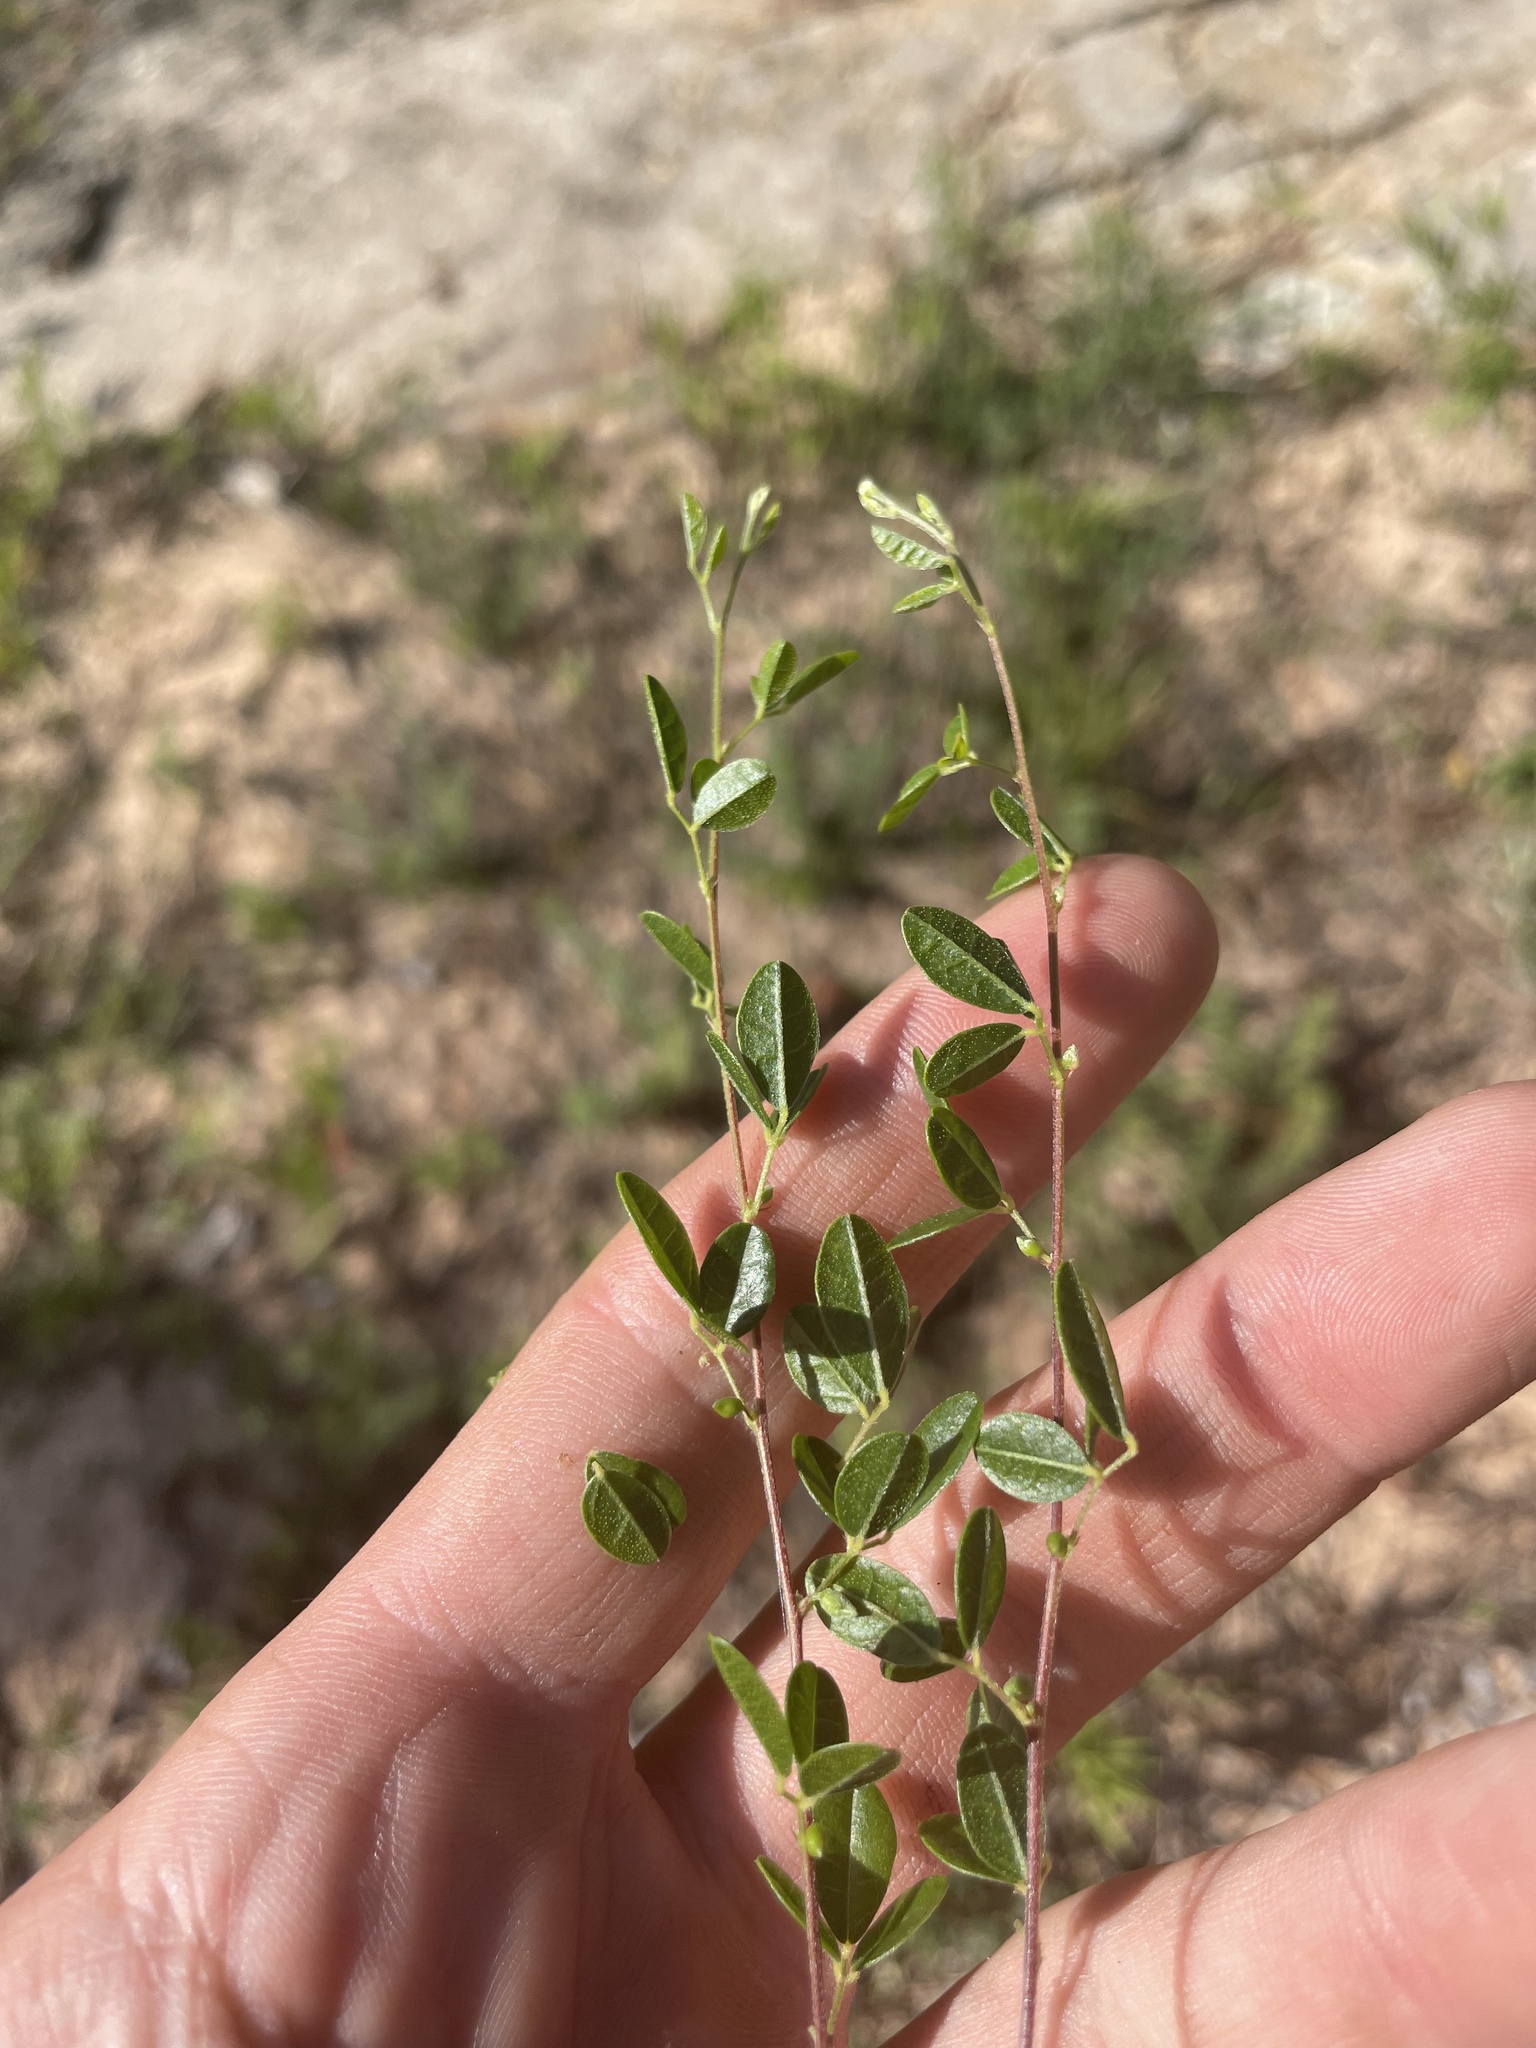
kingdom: Plantae
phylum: Tracheophyta
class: Magnoliopsida
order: Fabales
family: Fabaceae
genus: Rhynchosia
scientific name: Rhynchosia cytisoides
